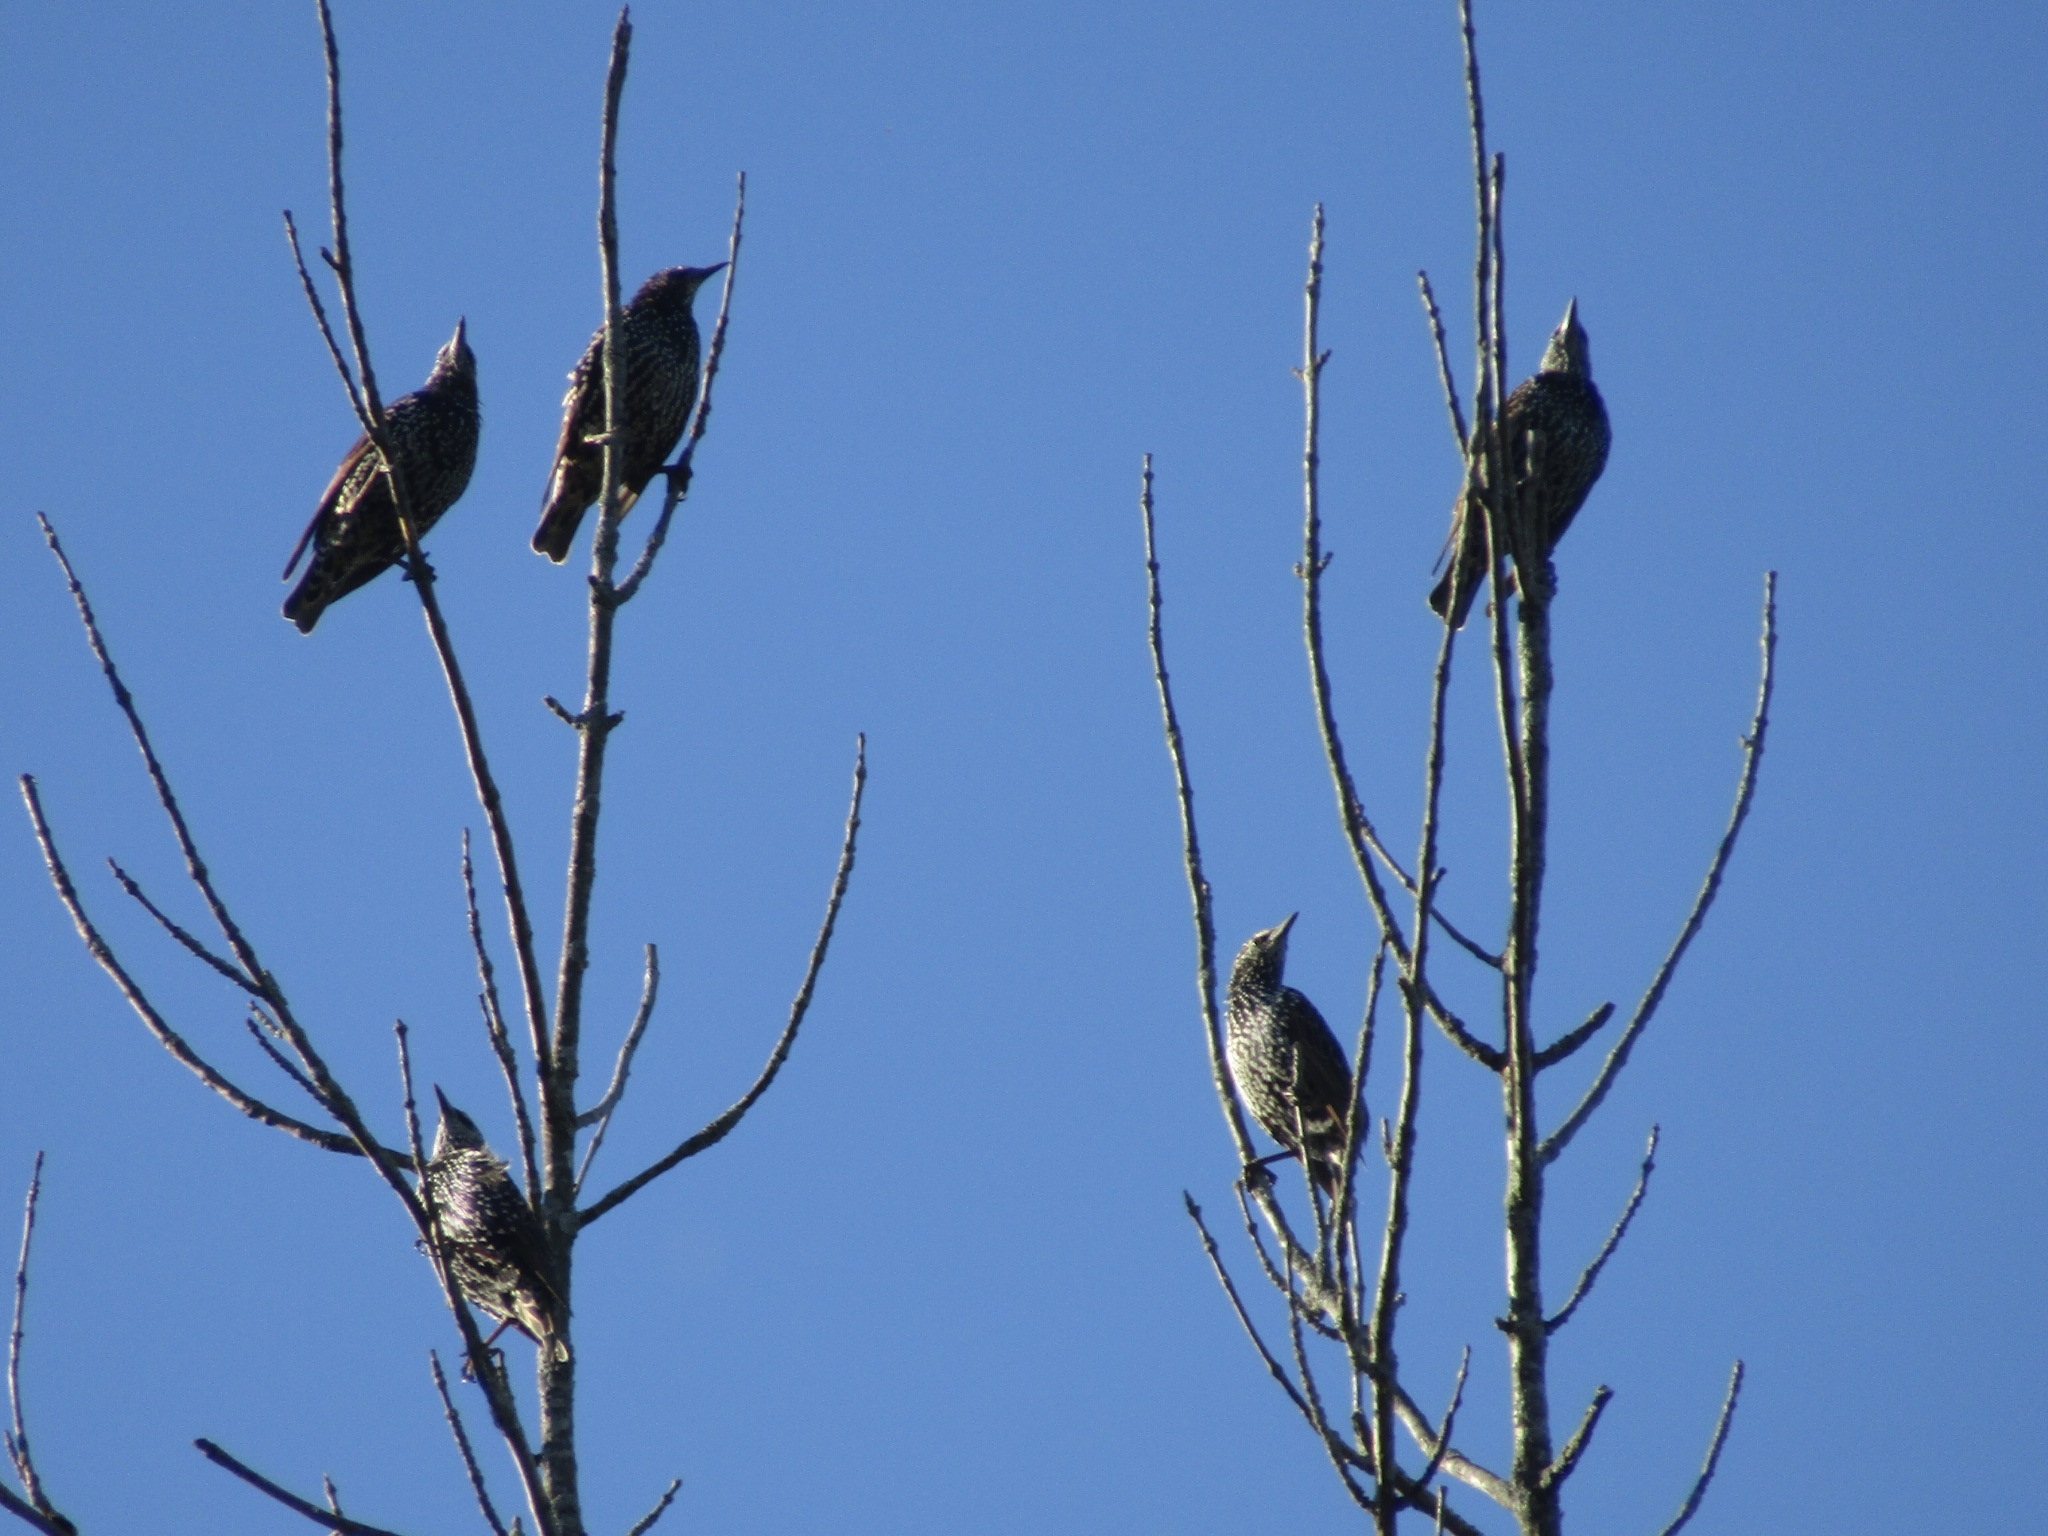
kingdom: Animalia
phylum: Chordata
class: Aves
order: Passeriformes
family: Sturnidae
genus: Sturnus
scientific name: Sturnus vulgaris
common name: Common starling
